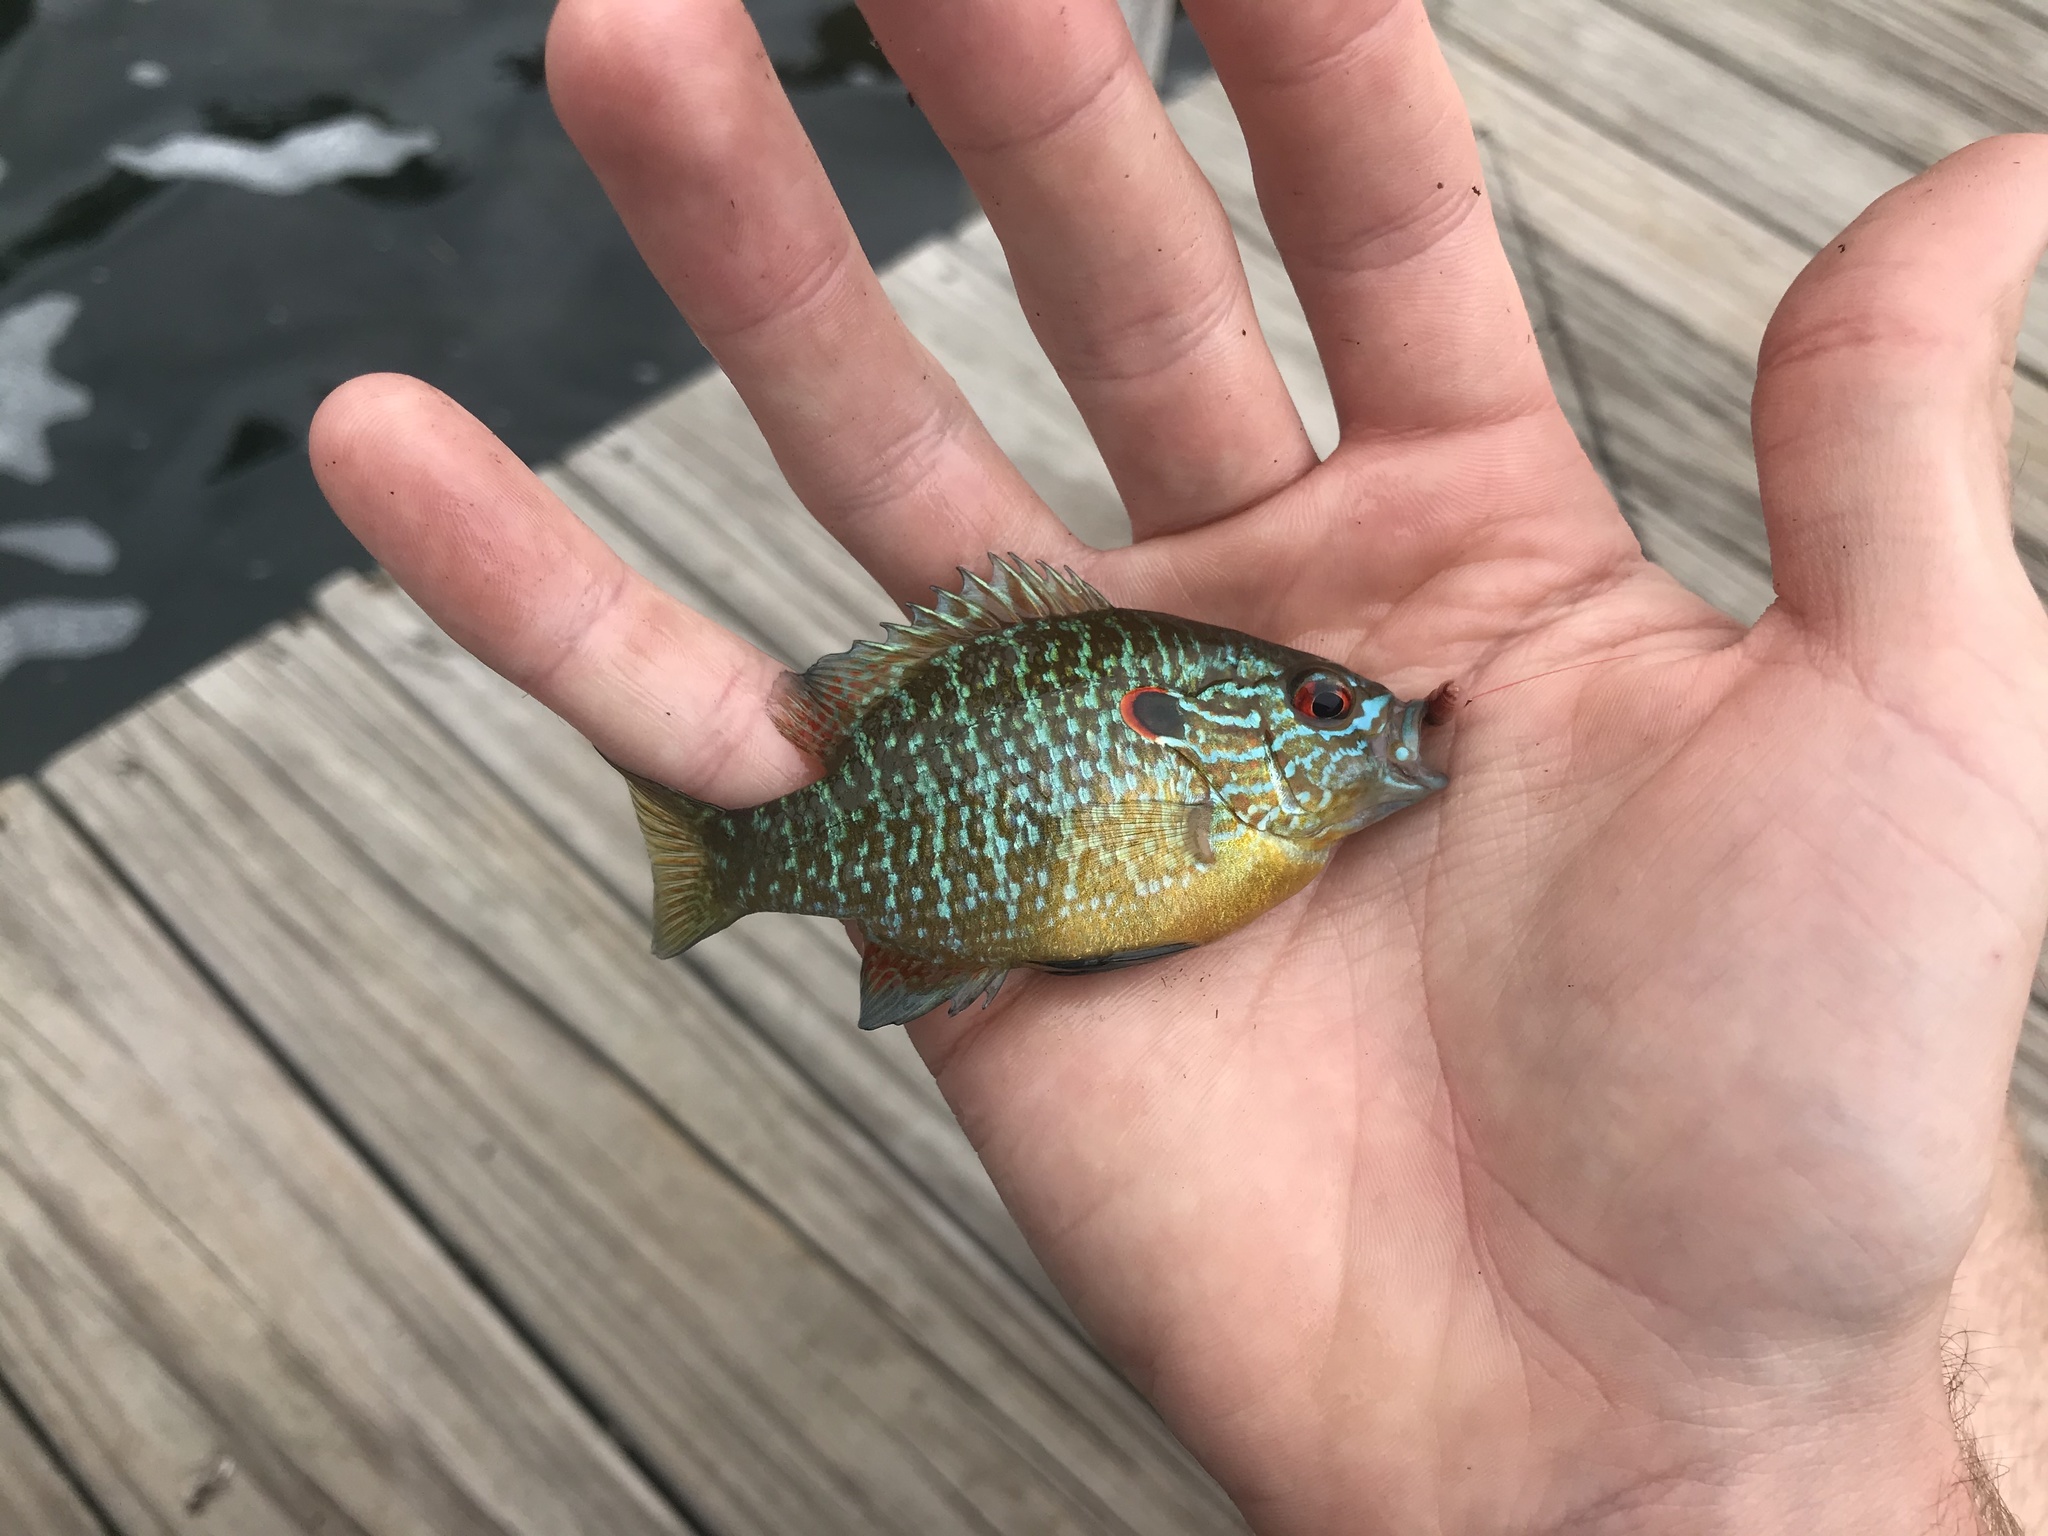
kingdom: Animalia
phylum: Chordata
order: Perciformes
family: Centrarchidae
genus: Lepomis
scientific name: Lepomis peltastes
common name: Northern sunfish
